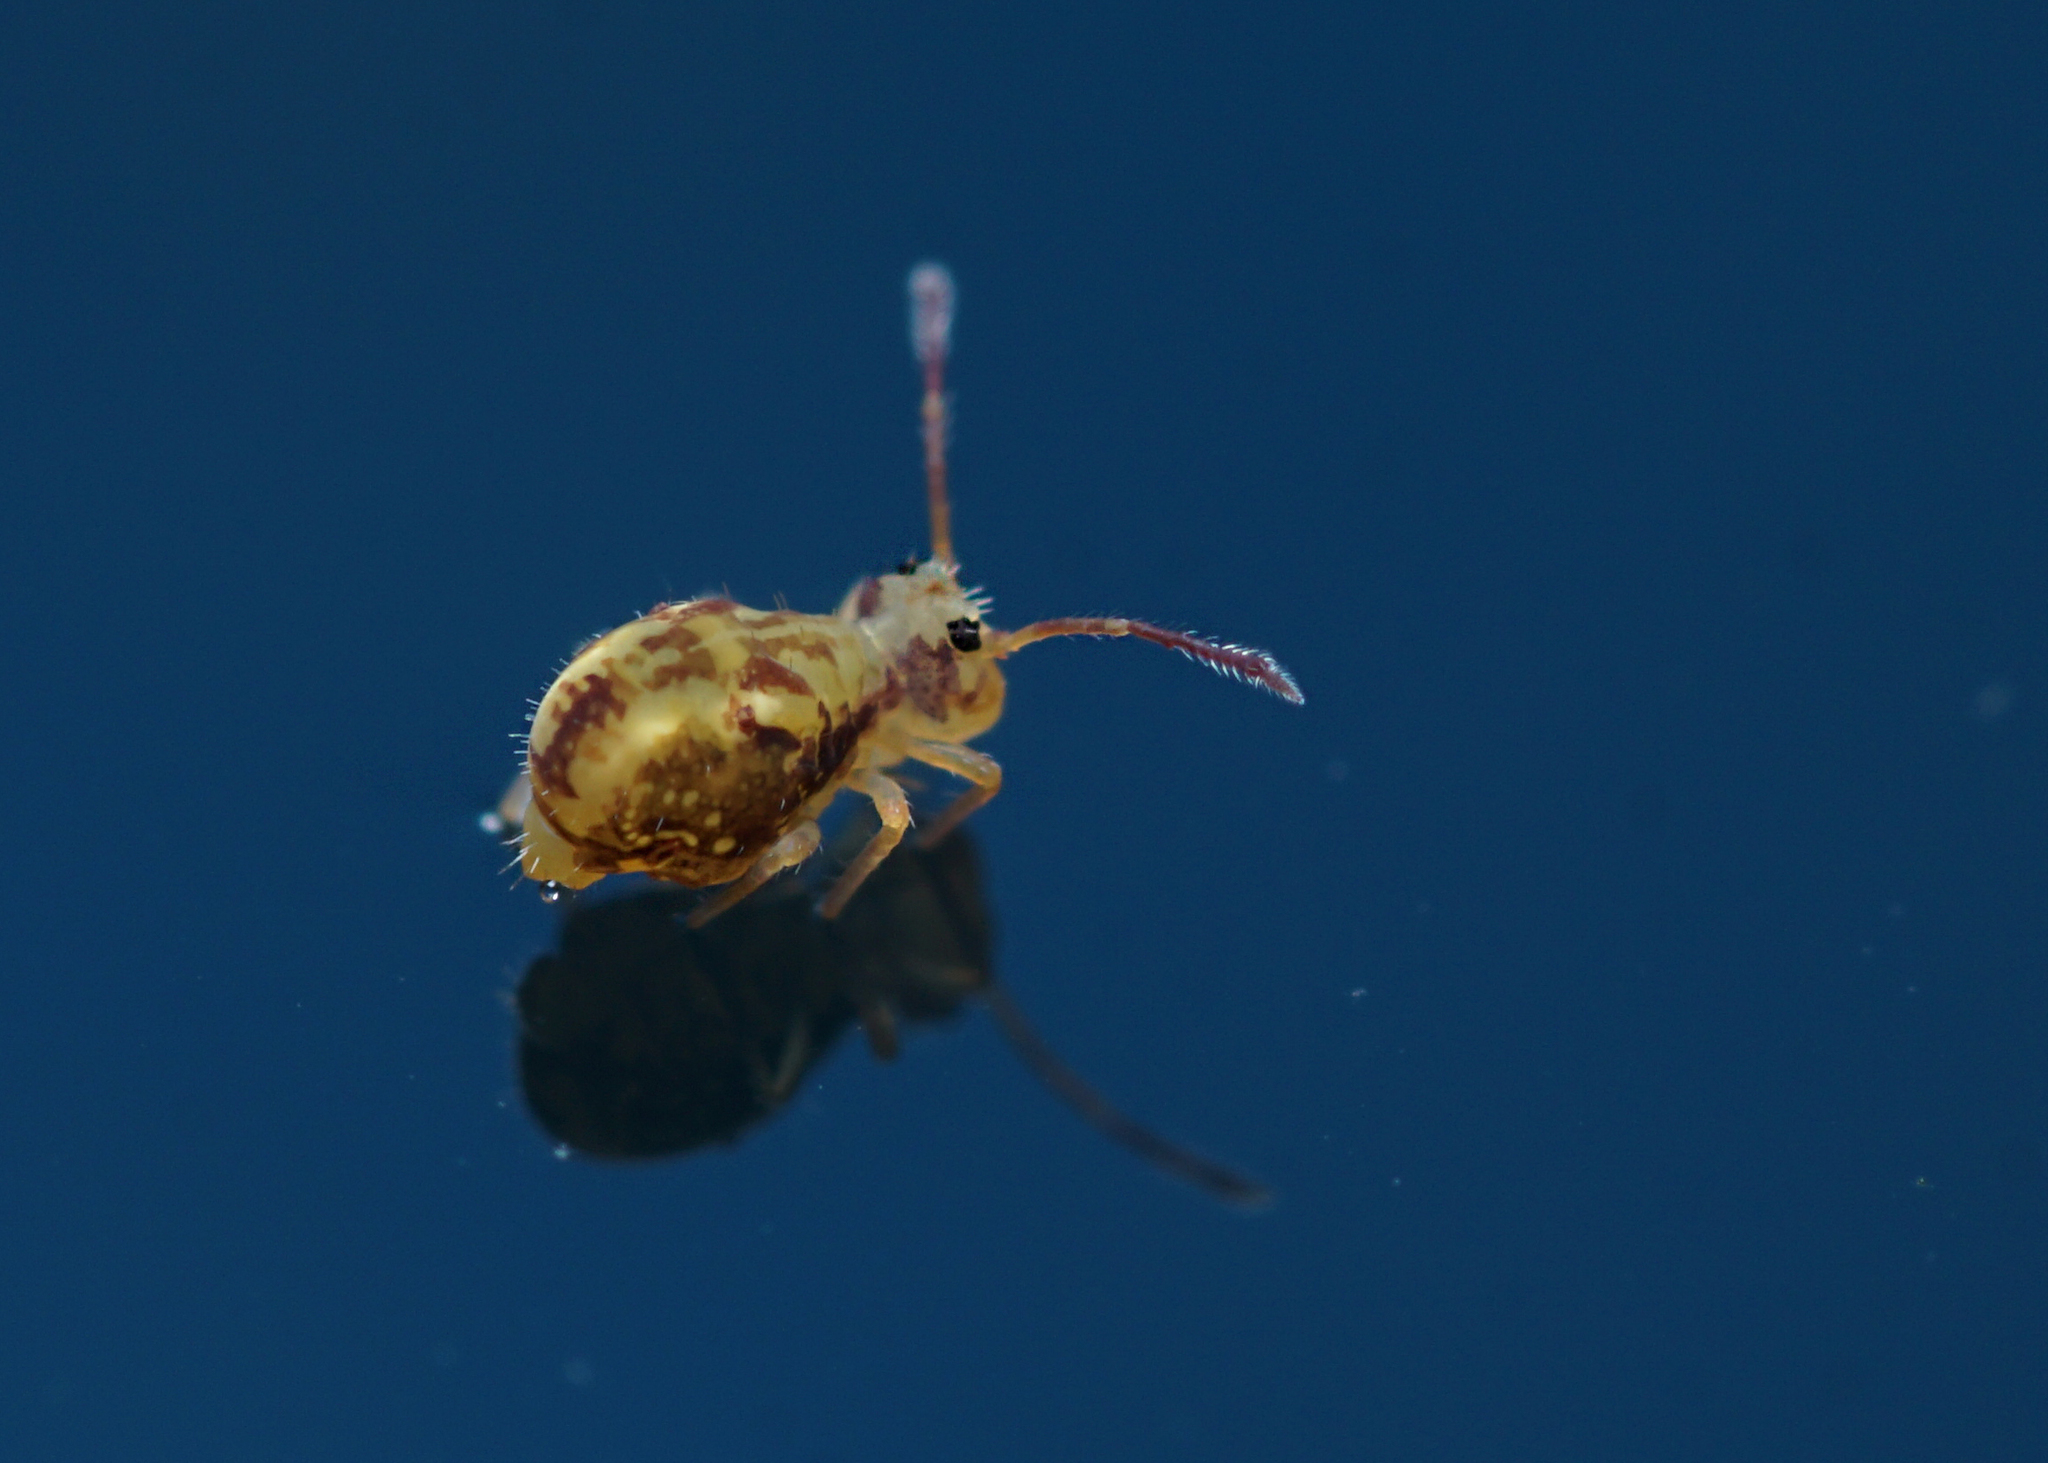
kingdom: Animalia
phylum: Arthropoda
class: Collembola
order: Symphypleona
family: Dicyrtomidae
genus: Dicyrtomina
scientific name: Dicyrtomina saundersi
